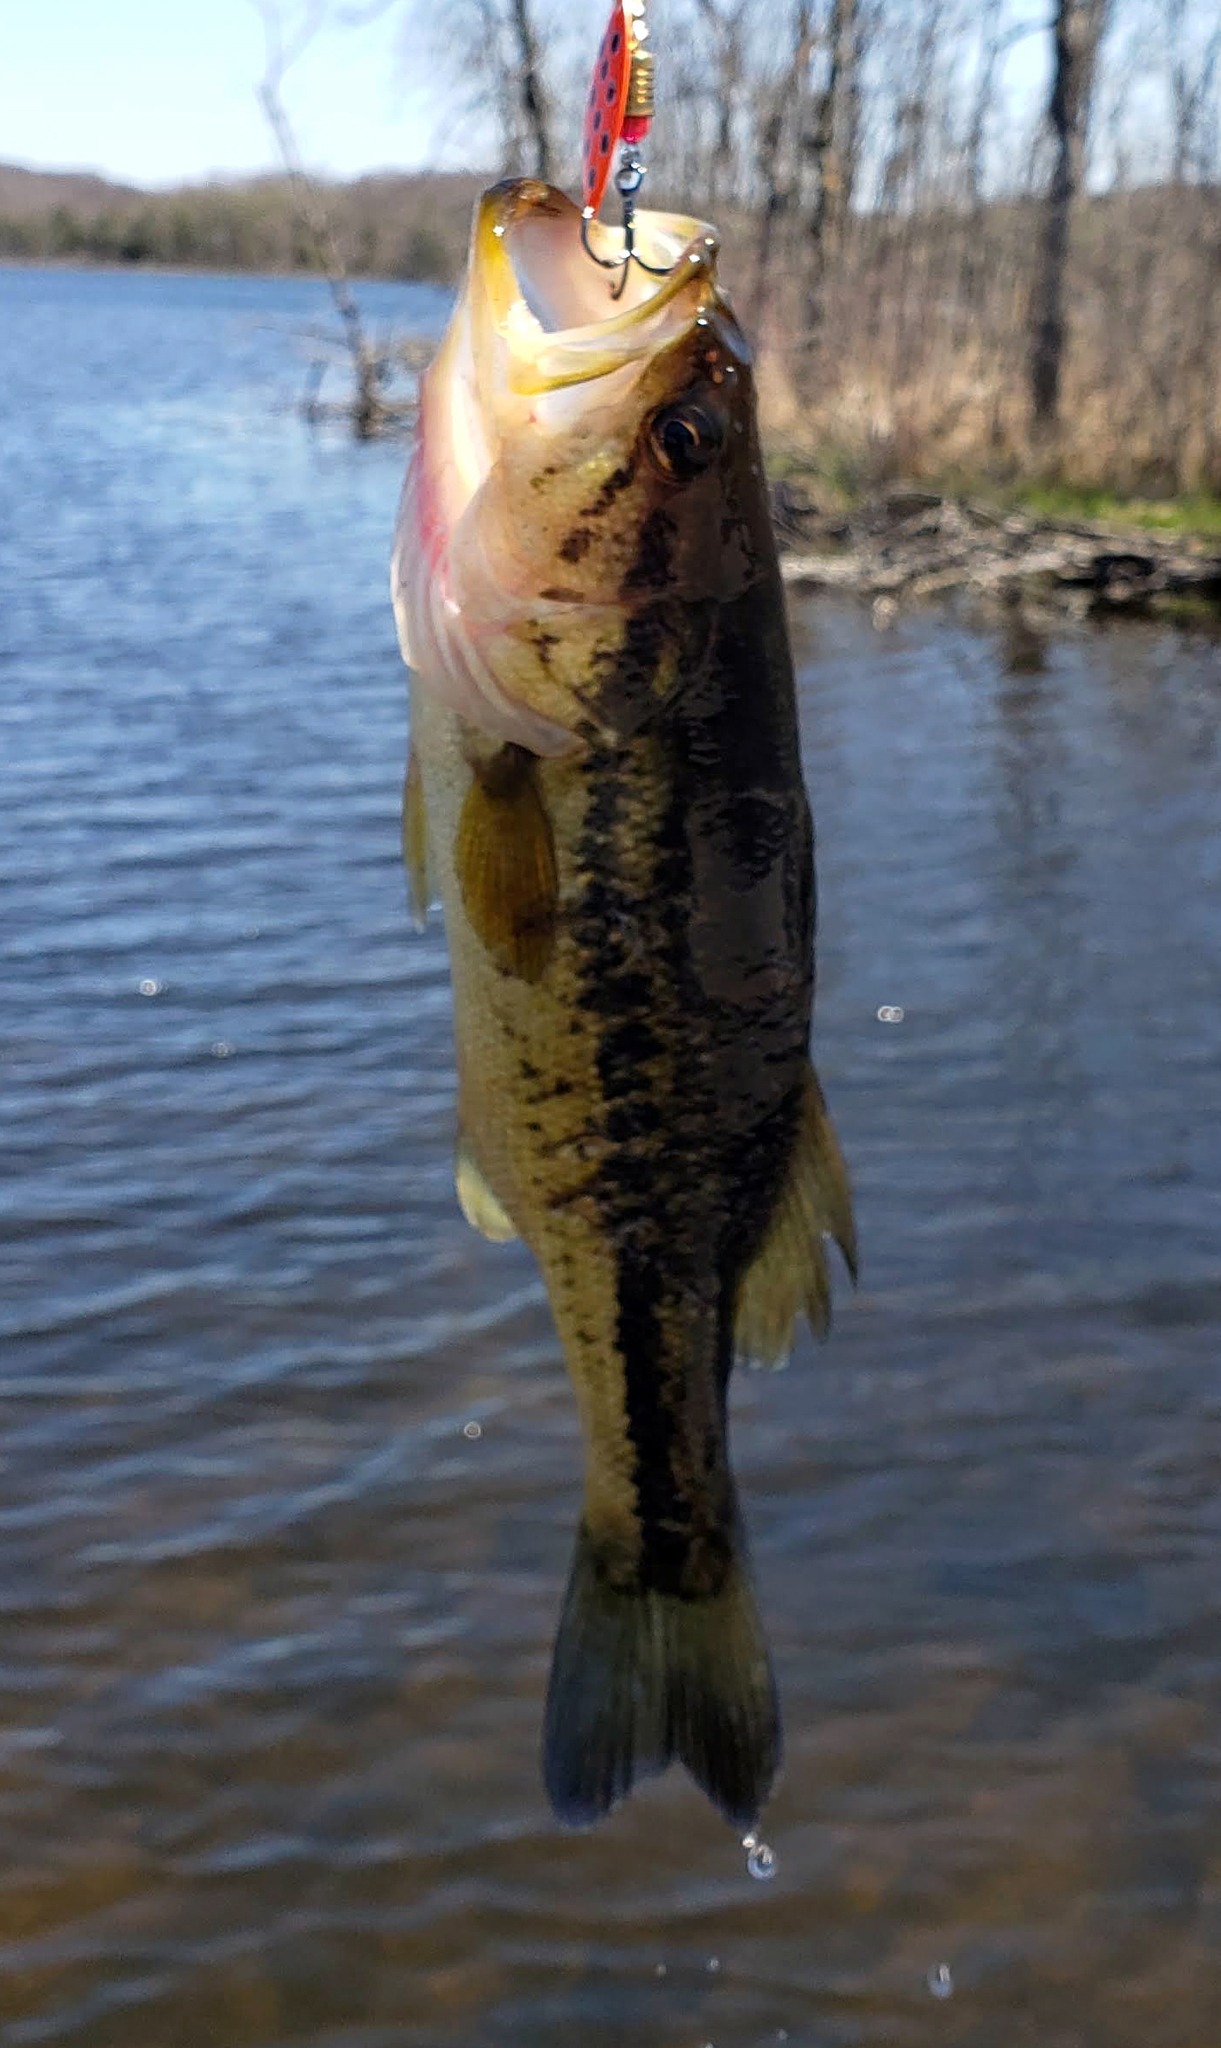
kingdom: Animalia
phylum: Chordata
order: Perciformes
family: Centrarchidae
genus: Micropterus
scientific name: Micropterus
